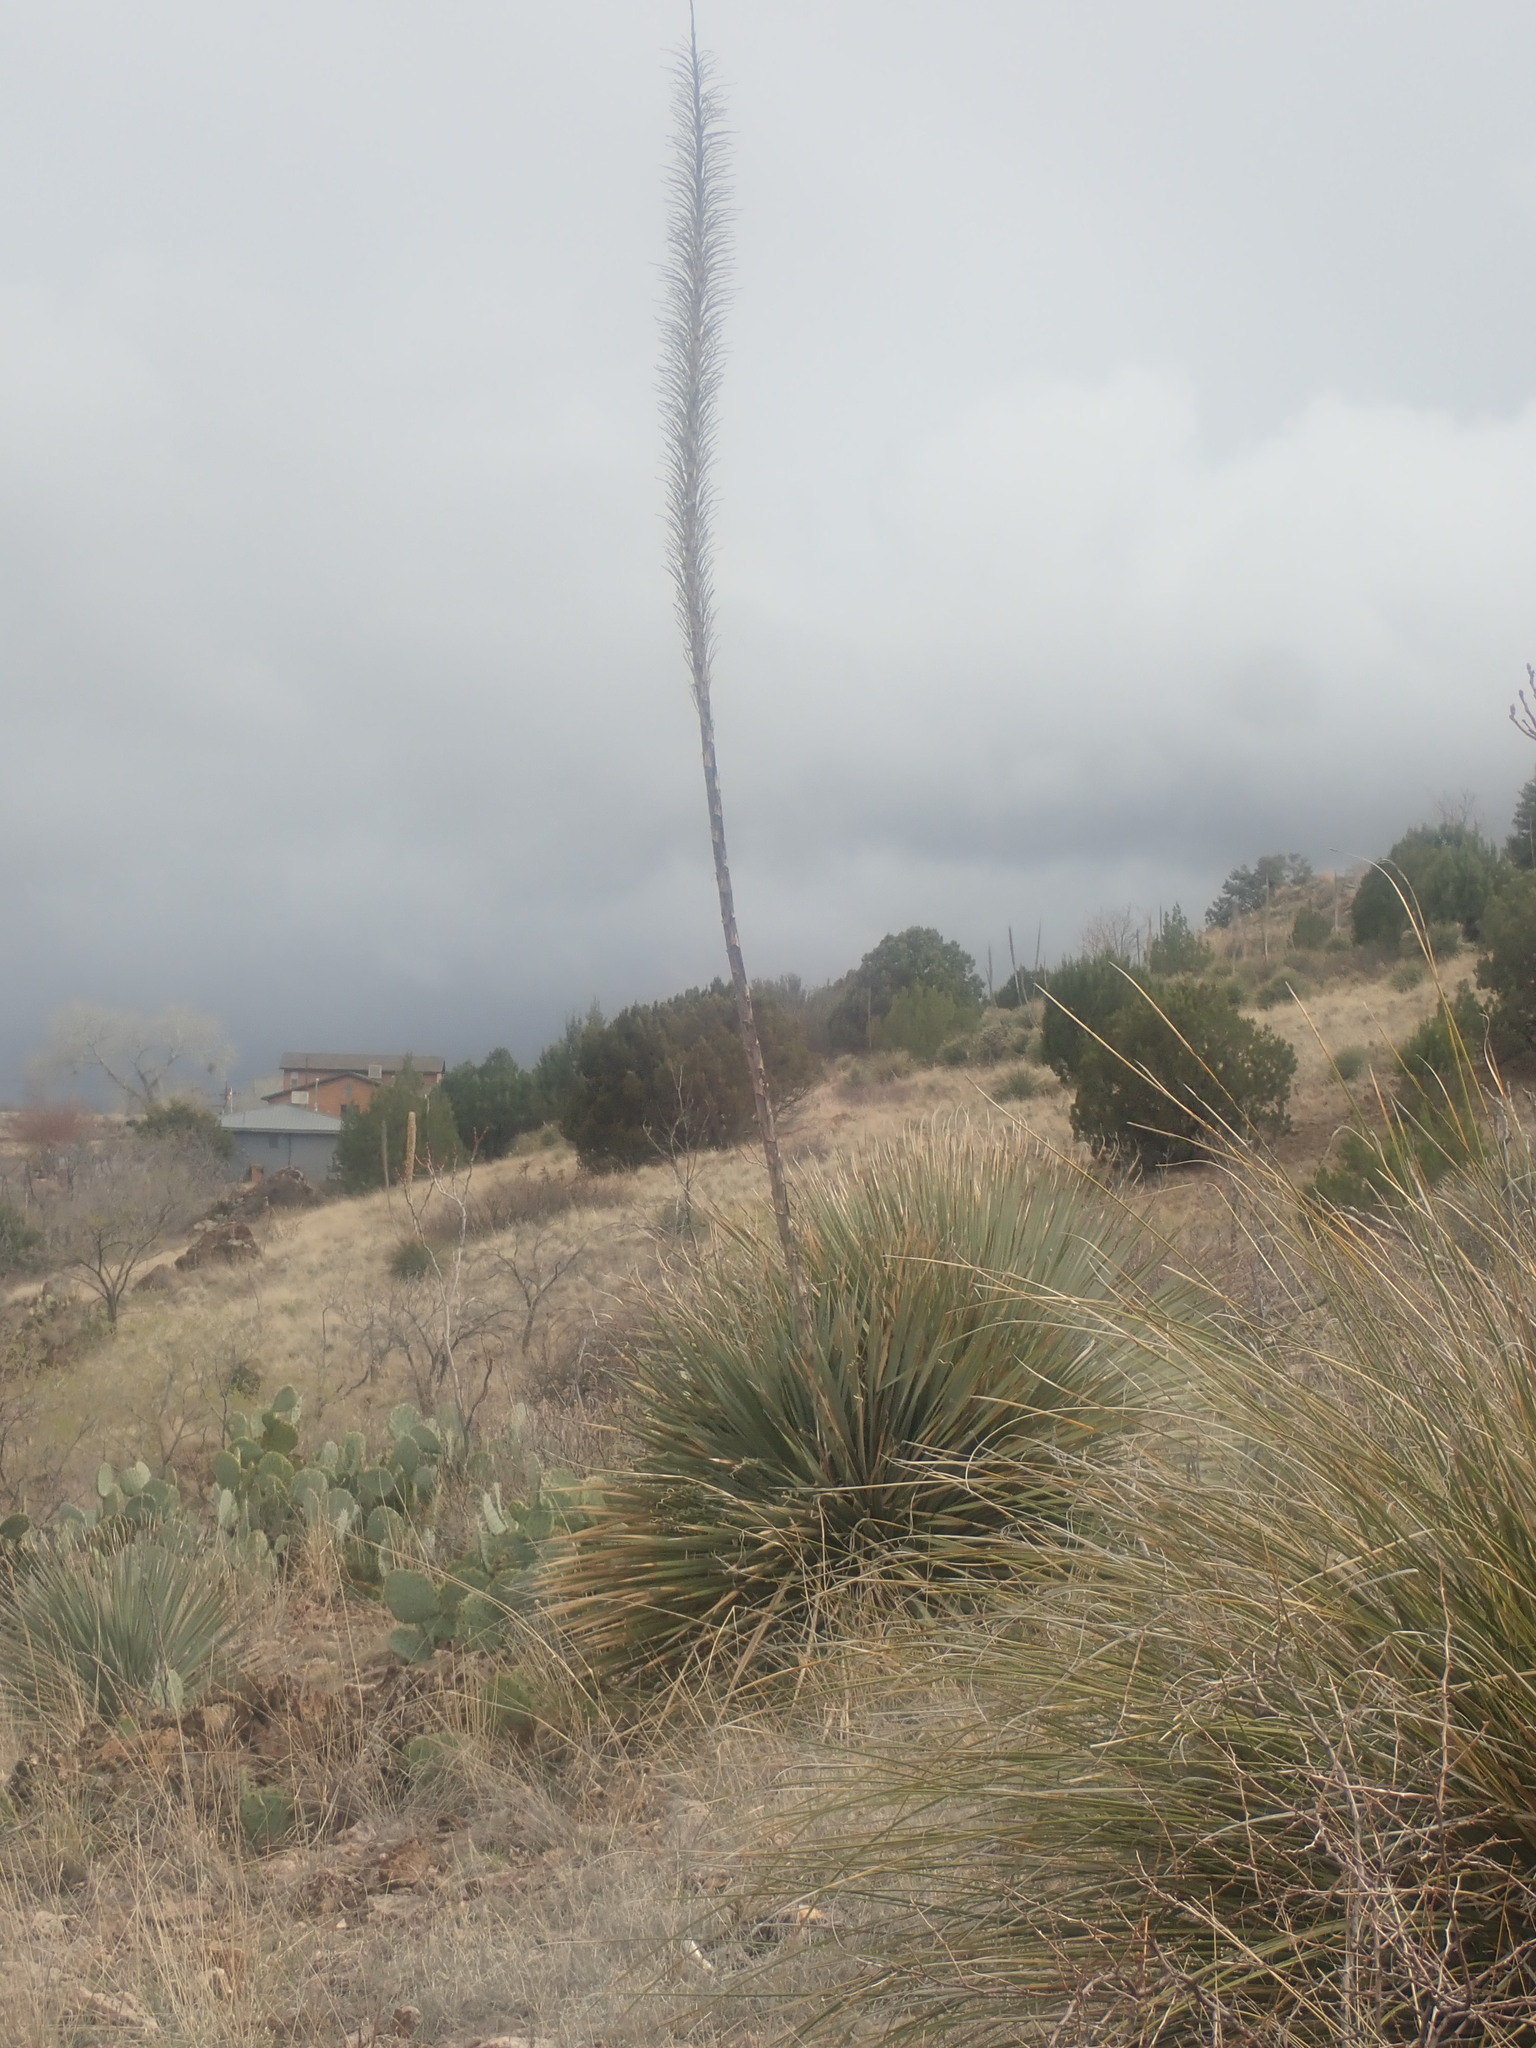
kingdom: Plantae
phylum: Tracheophyta
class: Liliopsida
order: Asparagales
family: Asparagaceae
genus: Dasylirion
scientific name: Dasylirion wheeleri
